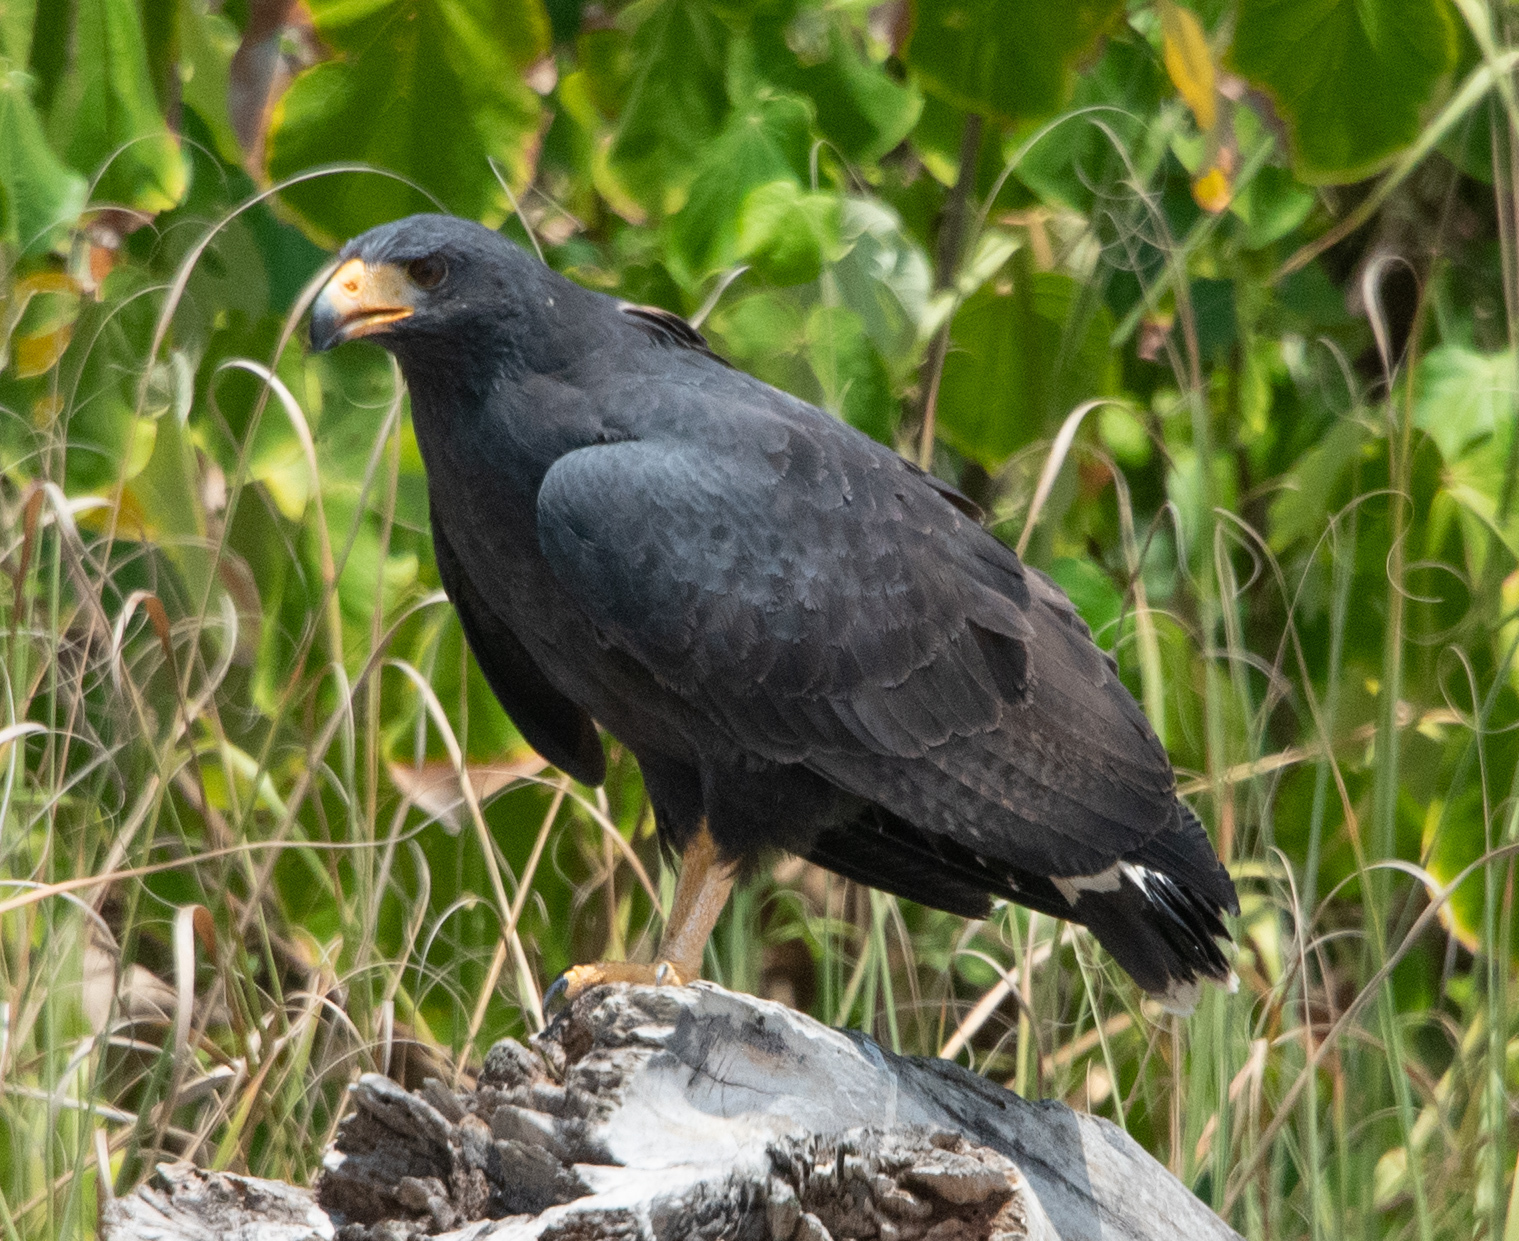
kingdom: Animalia
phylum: Chordata
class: Aves
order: Accipitriformes
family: Accipitridae
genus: Buteogallus
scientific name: Buteogallus anthracinus
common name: Common black hawk
